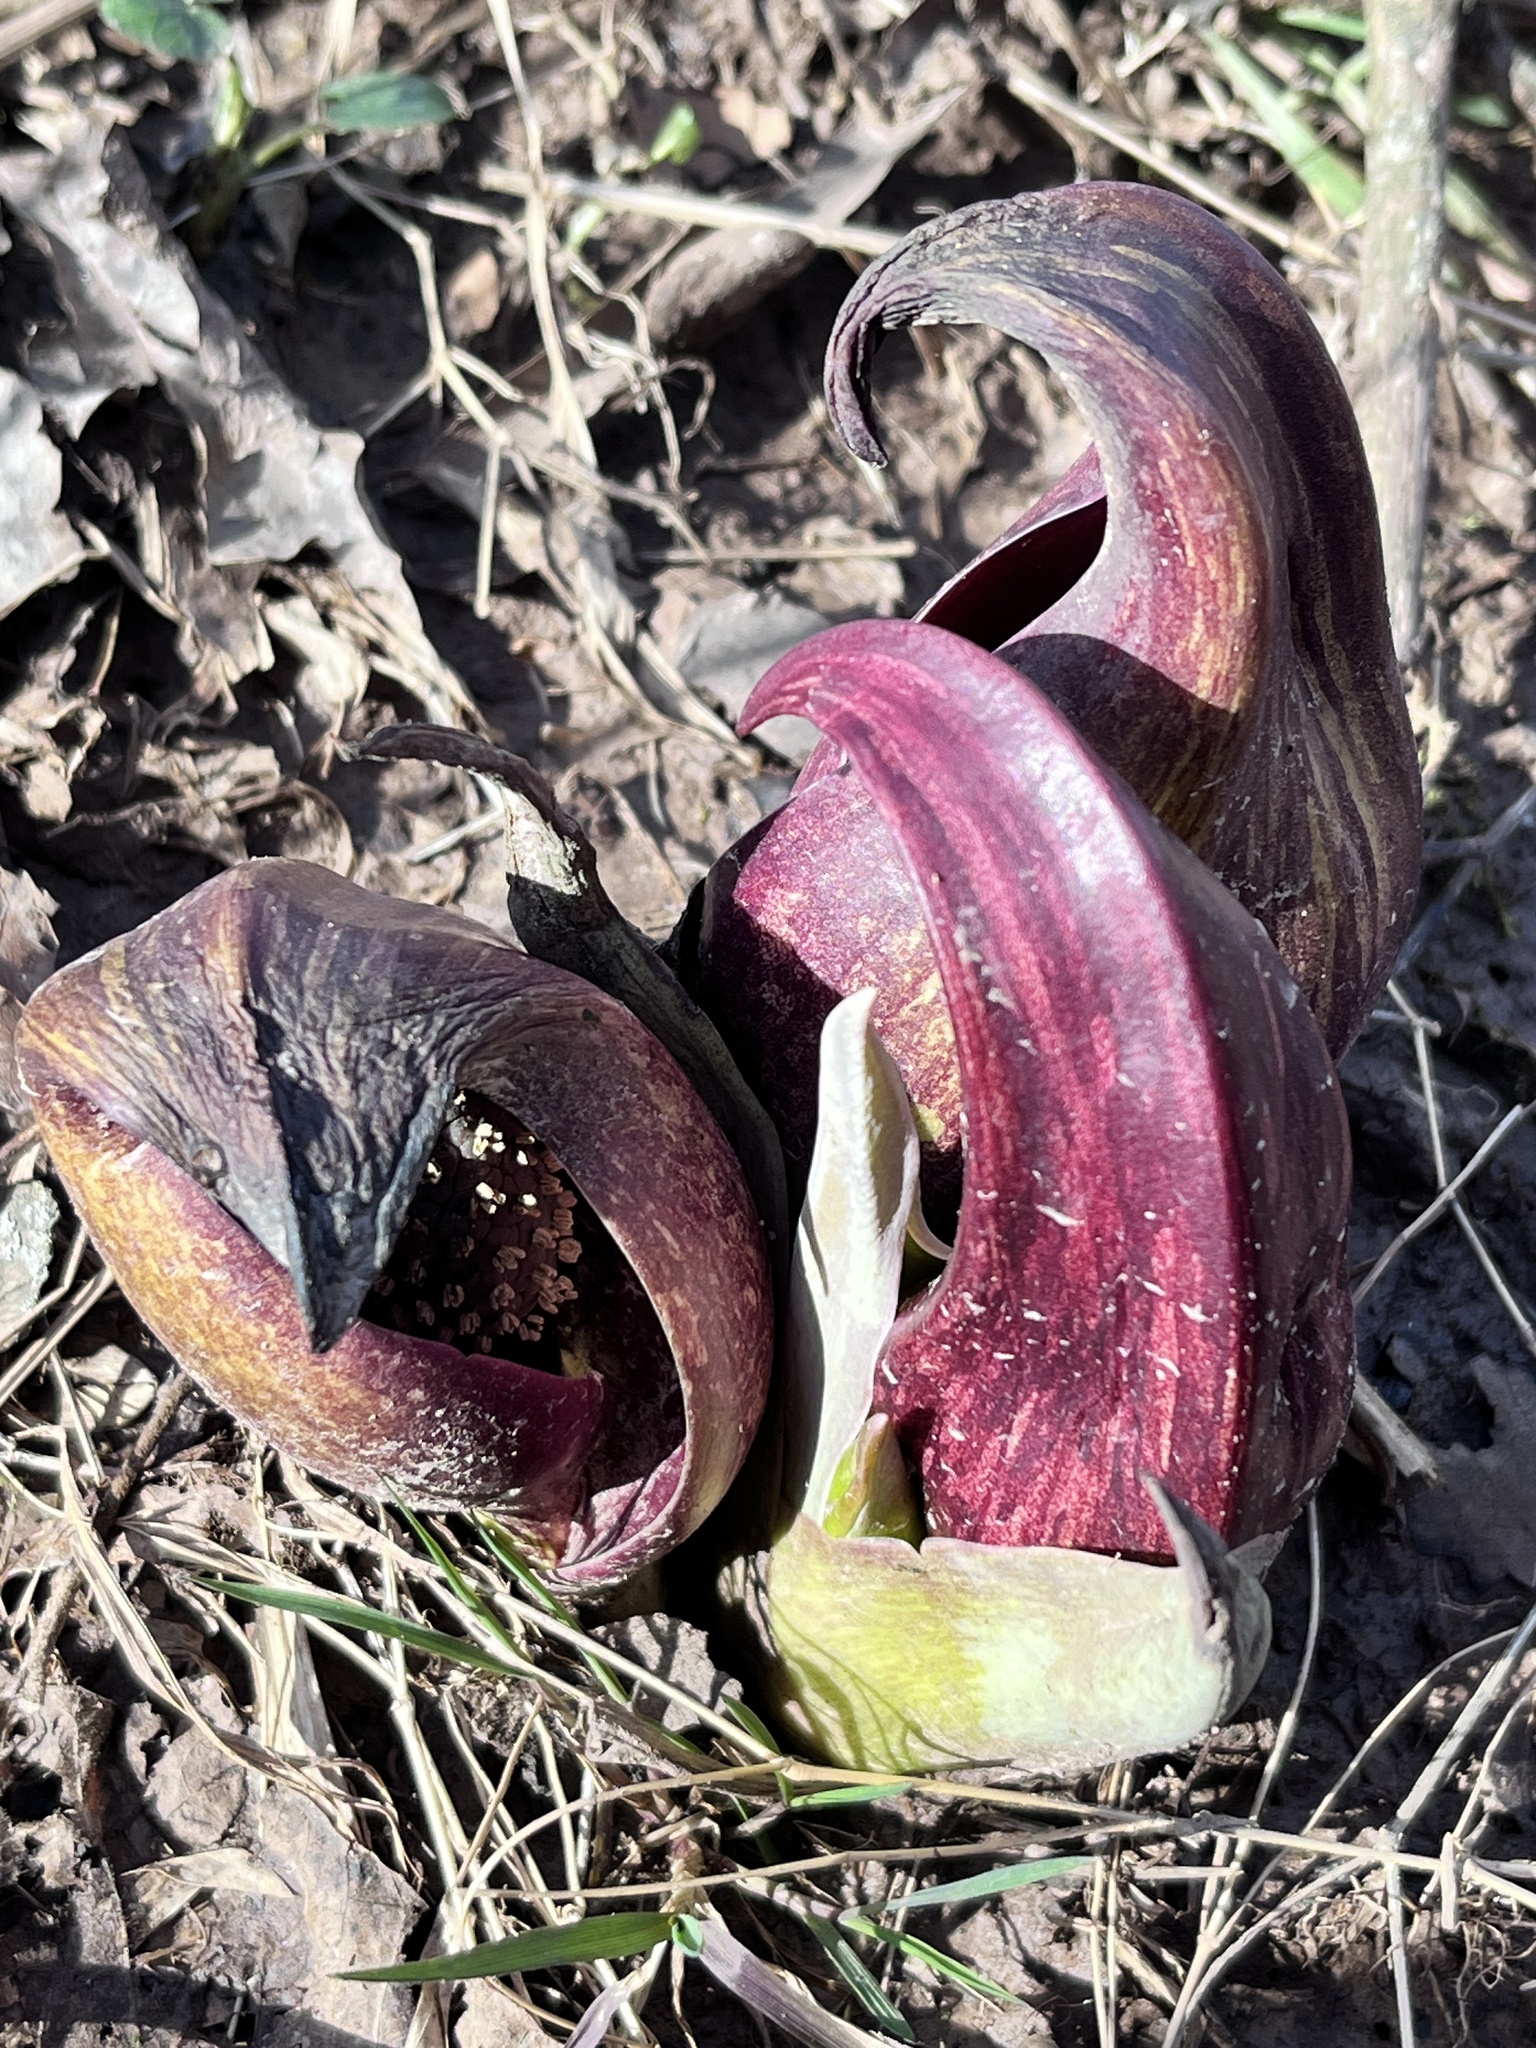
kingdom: Plantae
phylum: Tracheophyta
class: Liliopsida
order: Alismatales
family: Araceae
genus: Symplocarpus
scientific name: Symplocarpus foetidus
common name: Eastern skunk cabbage
